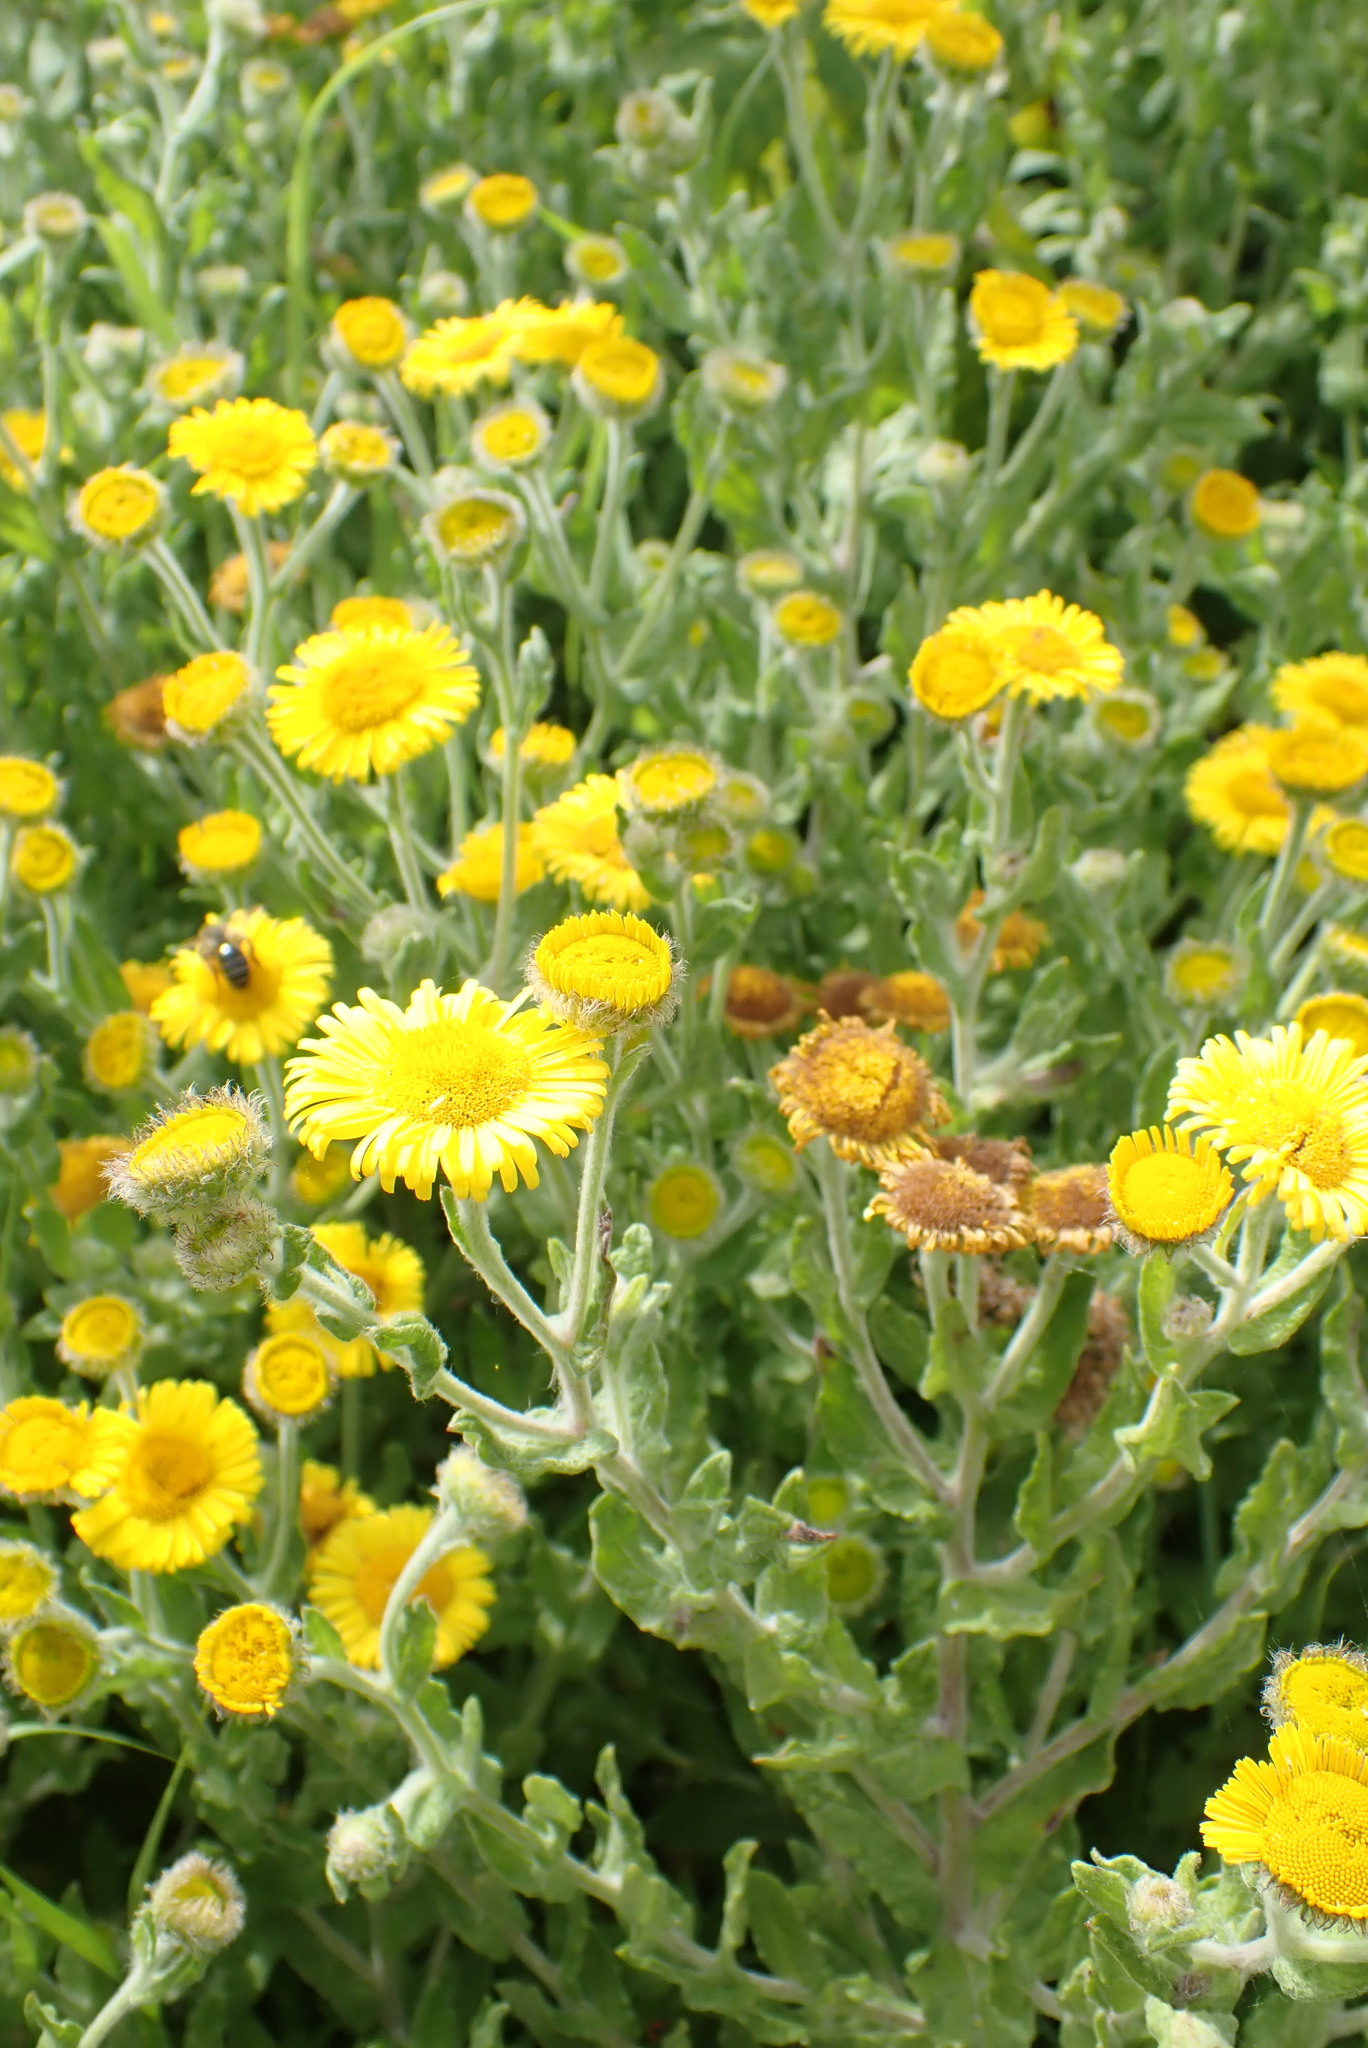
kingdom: Plantae
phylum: Tracheophyta
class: Magnoliopsida
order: Asterales
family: Asteraceae
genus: Pulicaria
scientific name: Pulicaria dysenterica
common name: Common fleabane
